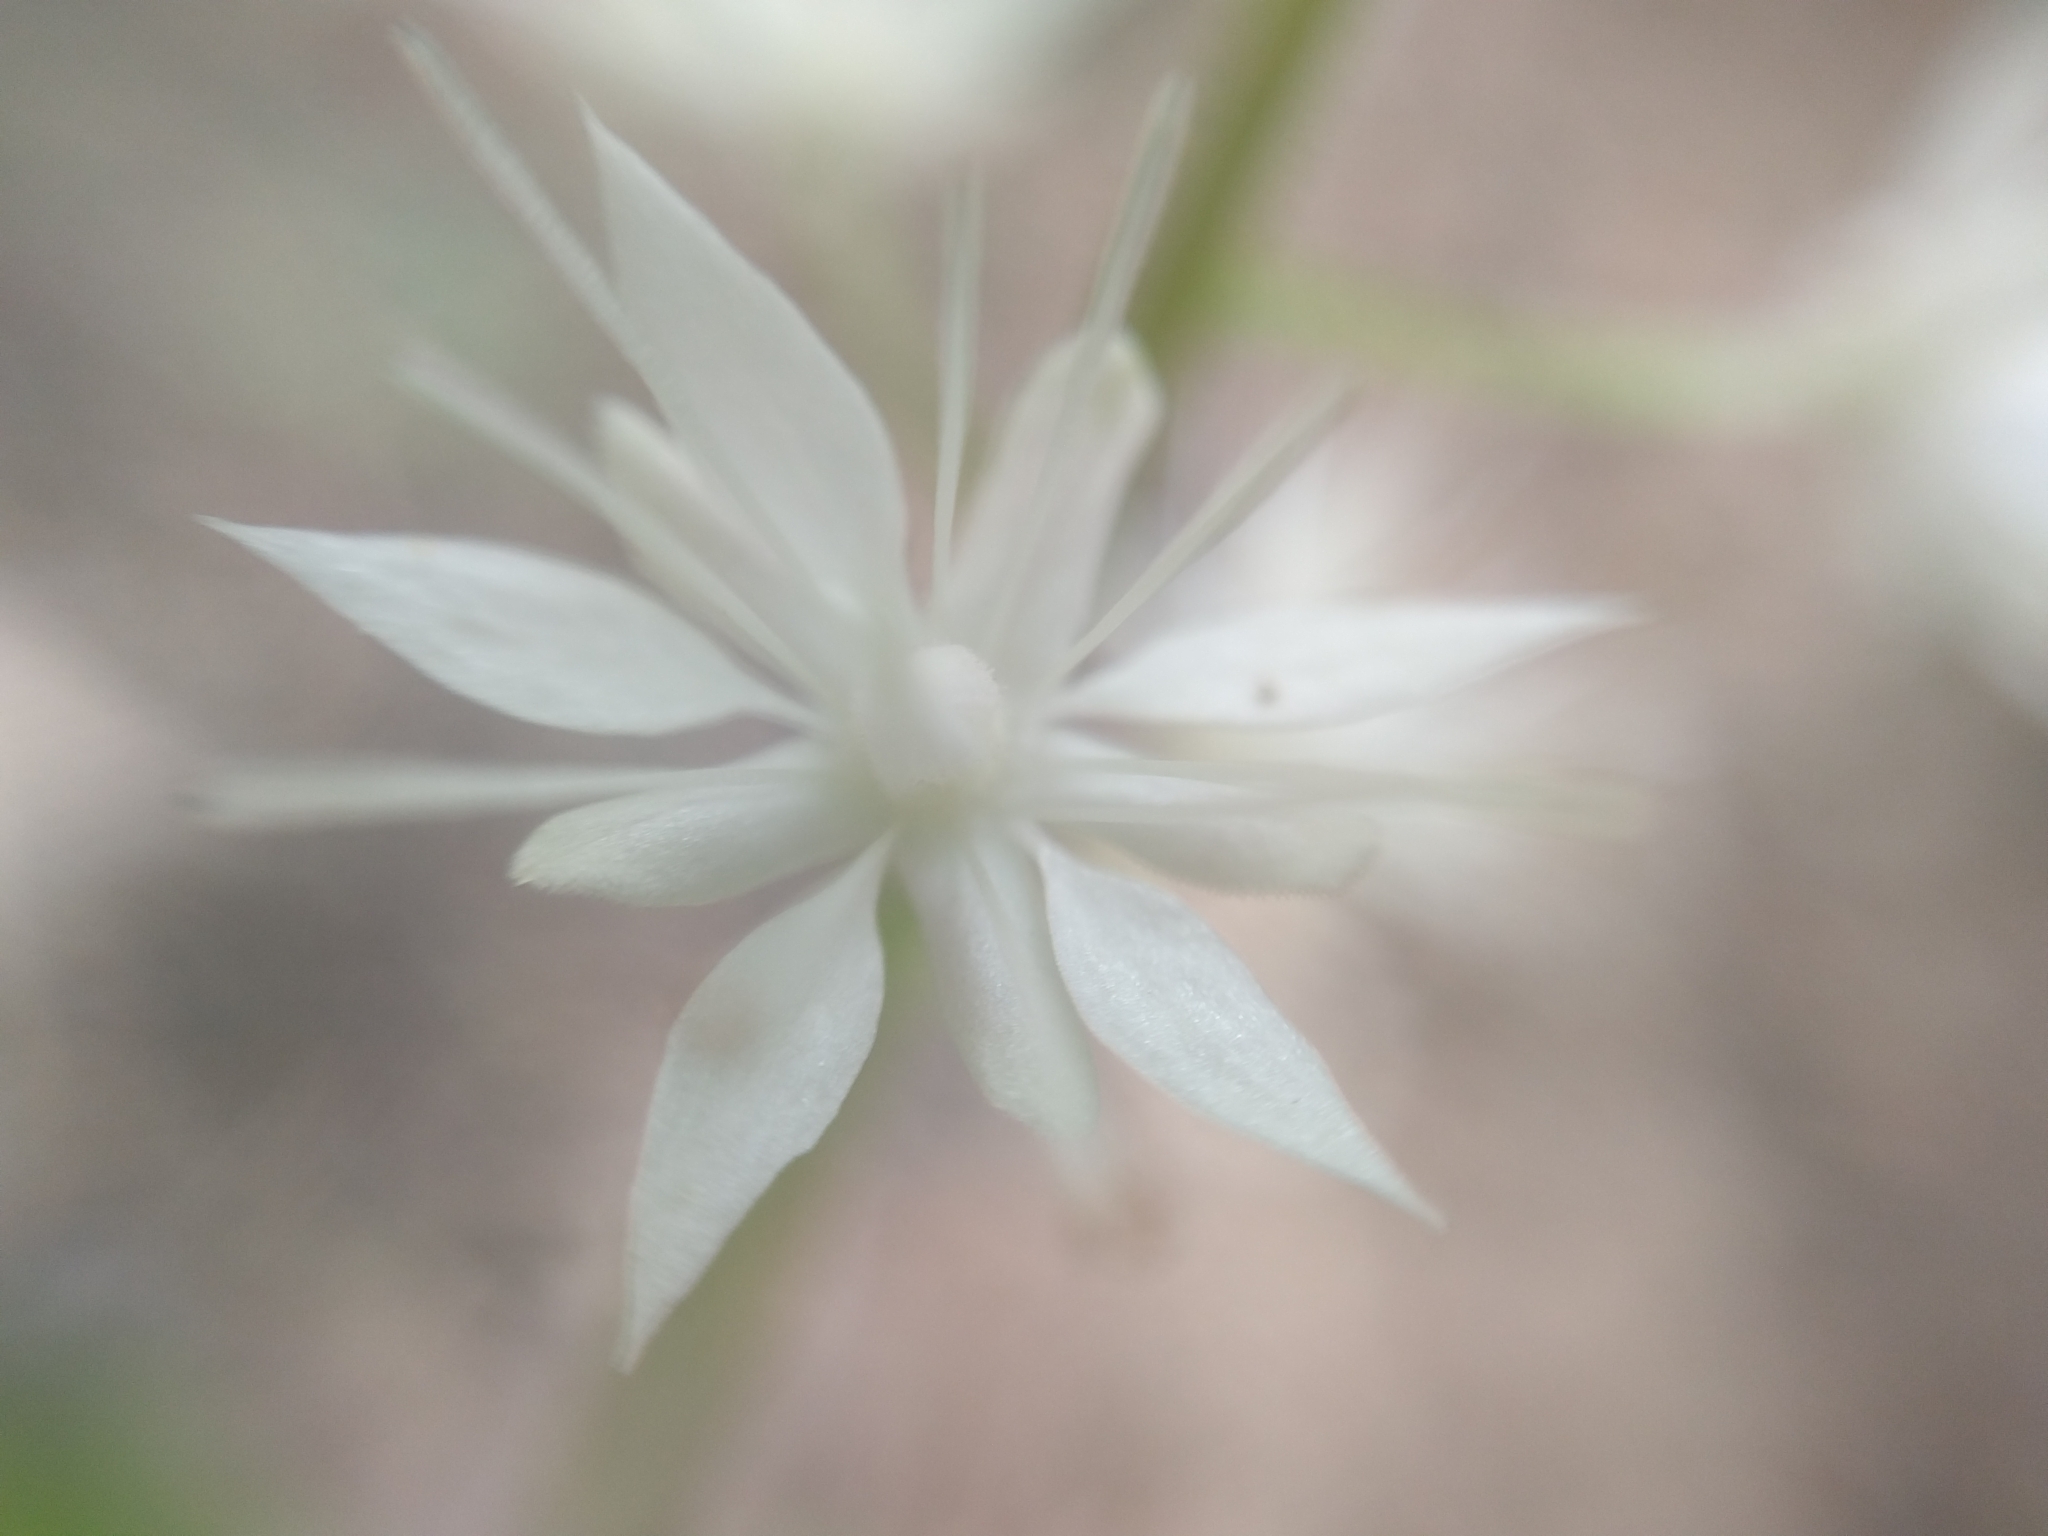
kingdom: Plantae
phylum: Tracheophyta
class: Magnoliopsida
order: Saxifragales
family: Saxifragaceae
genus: Tiarella
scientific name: Tiarella cordifolia
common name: Foamflower
